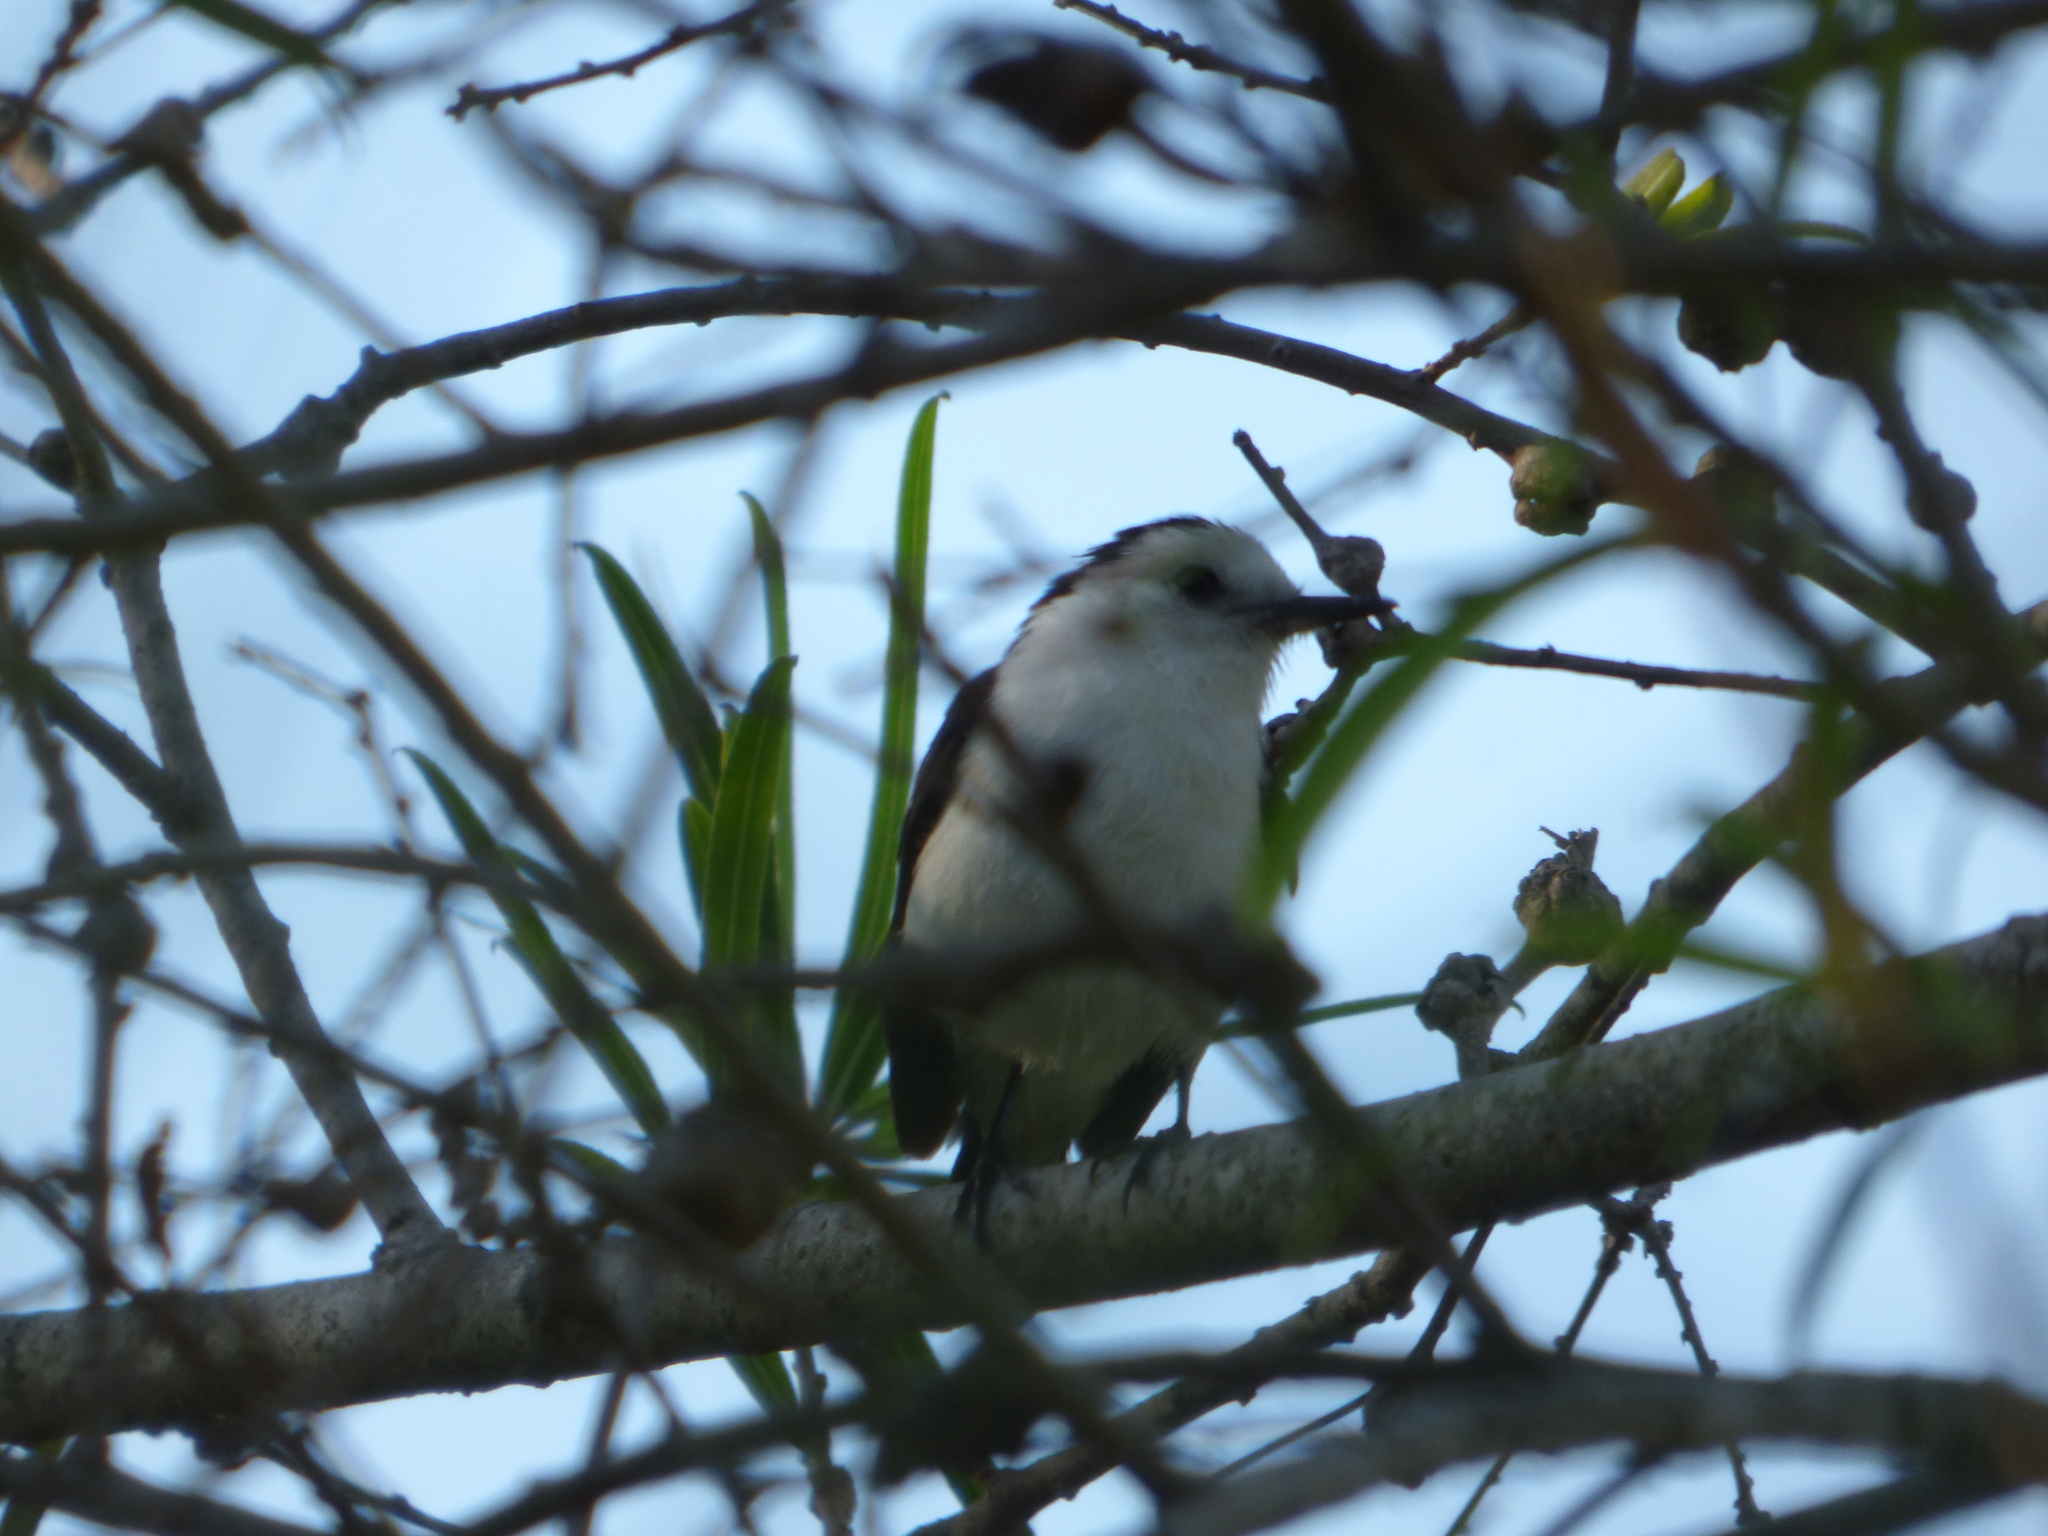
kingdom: Animalia
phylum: Chordata
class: Aves
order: Passeriformes
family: Tyrannidae
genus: Fluvicola
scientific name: Fluvicola pica
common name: Pied water-tyrant
